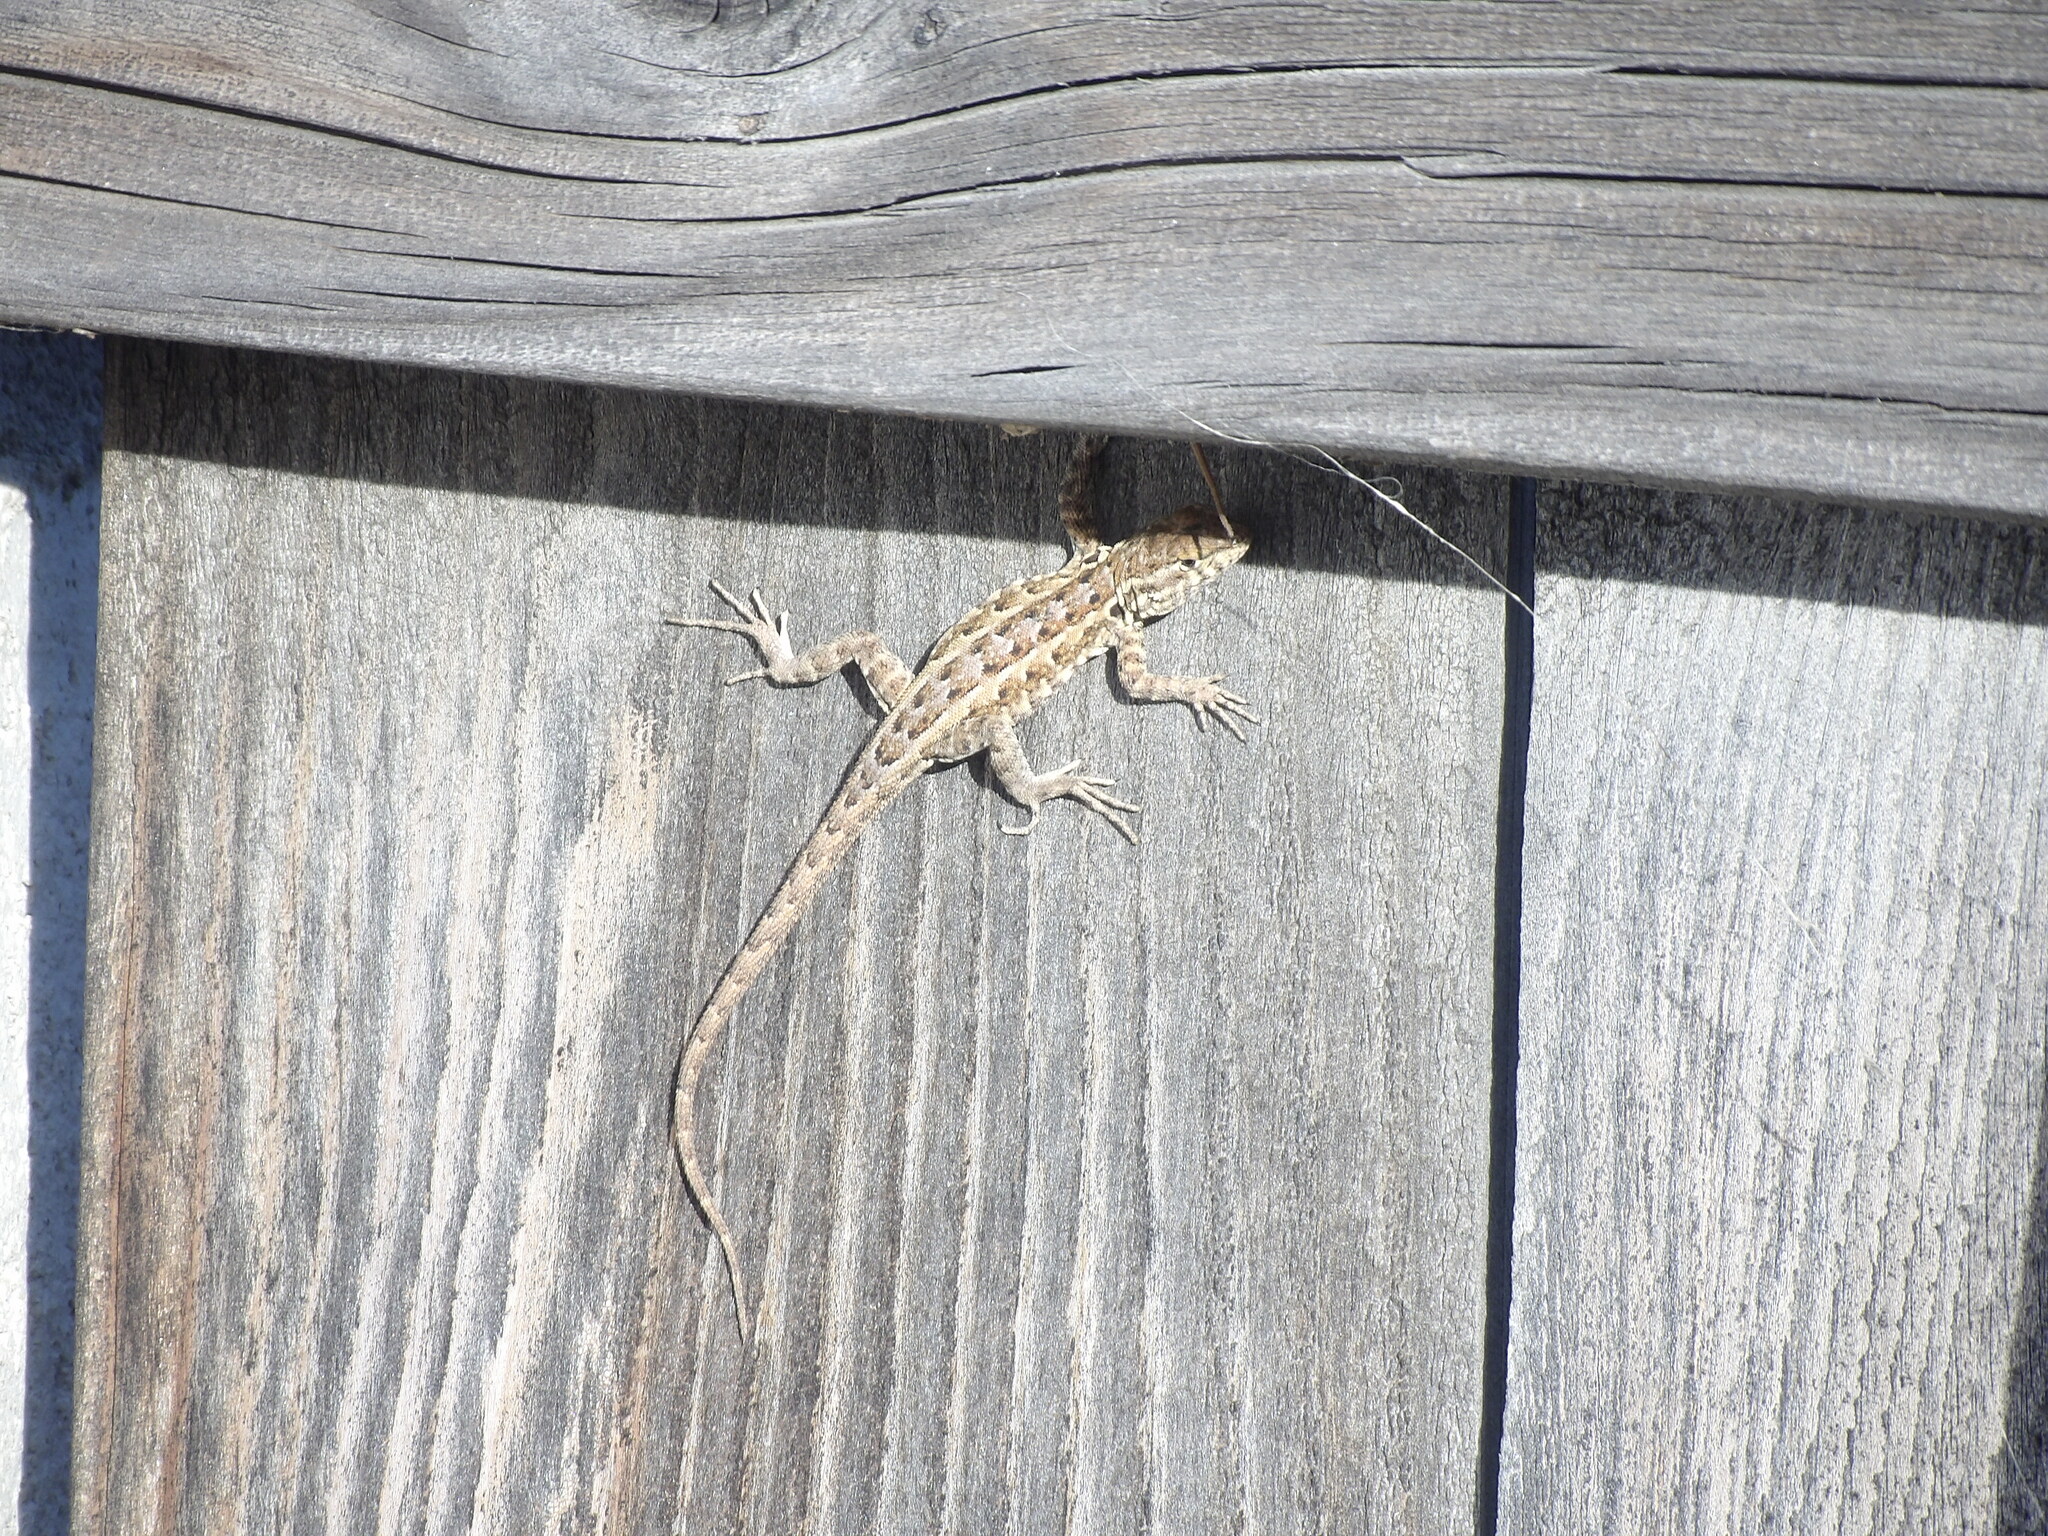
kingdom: Animalia
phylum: Chordata
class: Squamata
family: Phrynosomatidae
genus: Uta
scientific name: Uta stansburiana
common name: Side-blotched lizard
